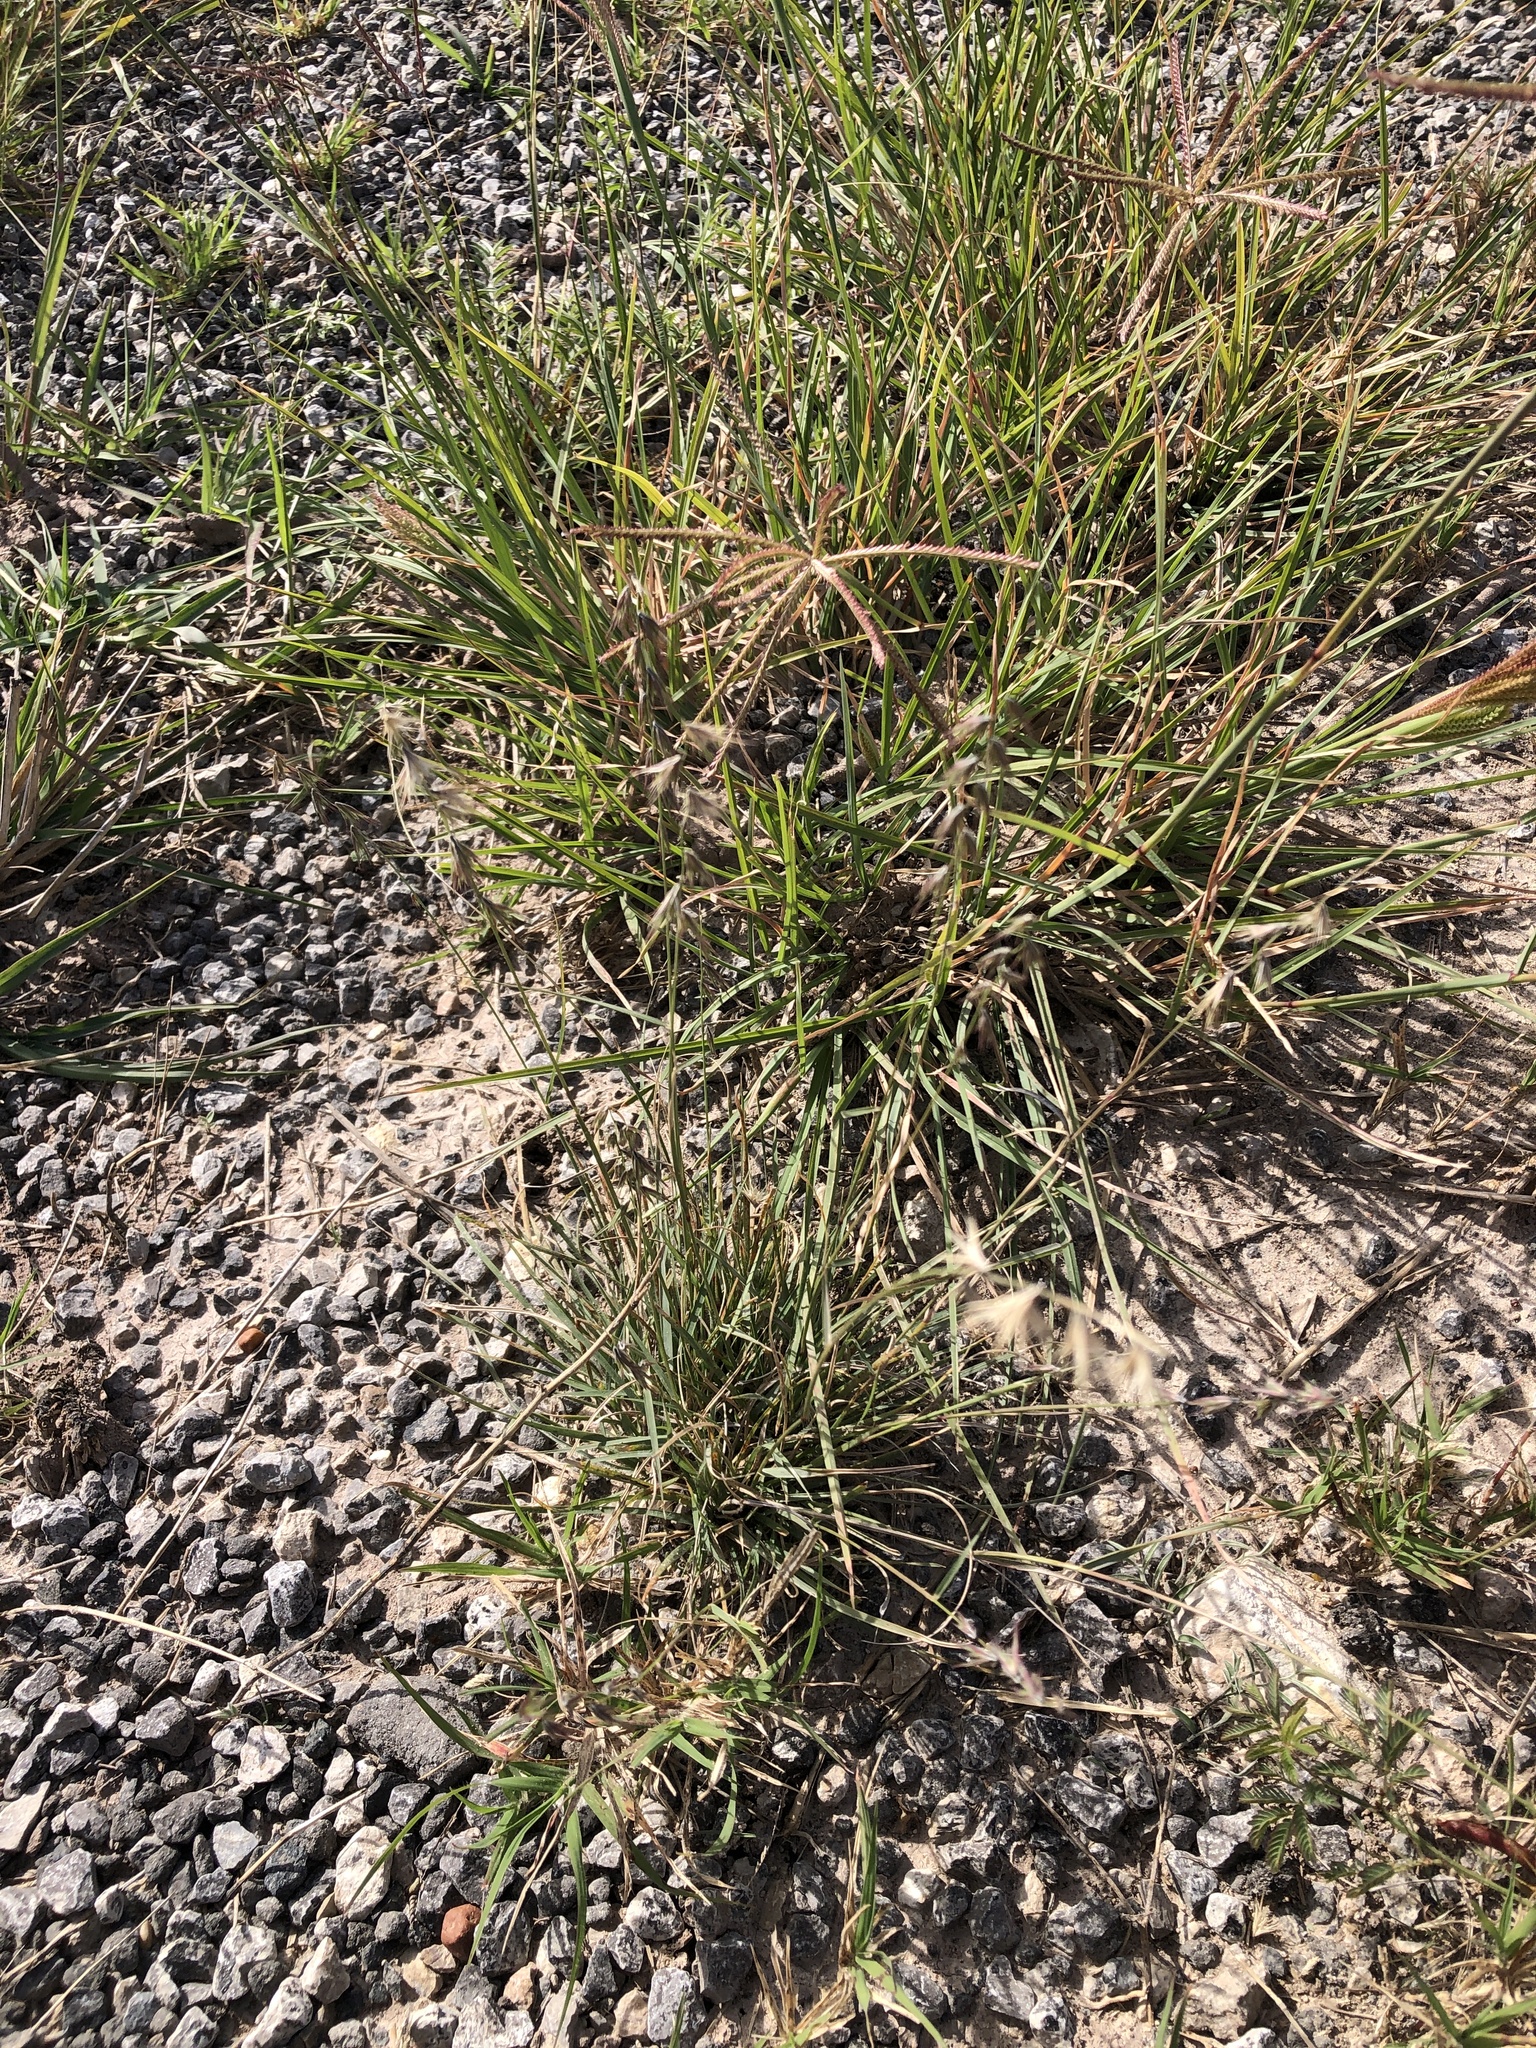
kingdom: Plantae
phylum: Tracheophyta
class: Liliopsida
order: Poales
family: Poaceae
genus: Bouteloua
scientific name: Bouteloua rigidiseta
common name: Texas grama
